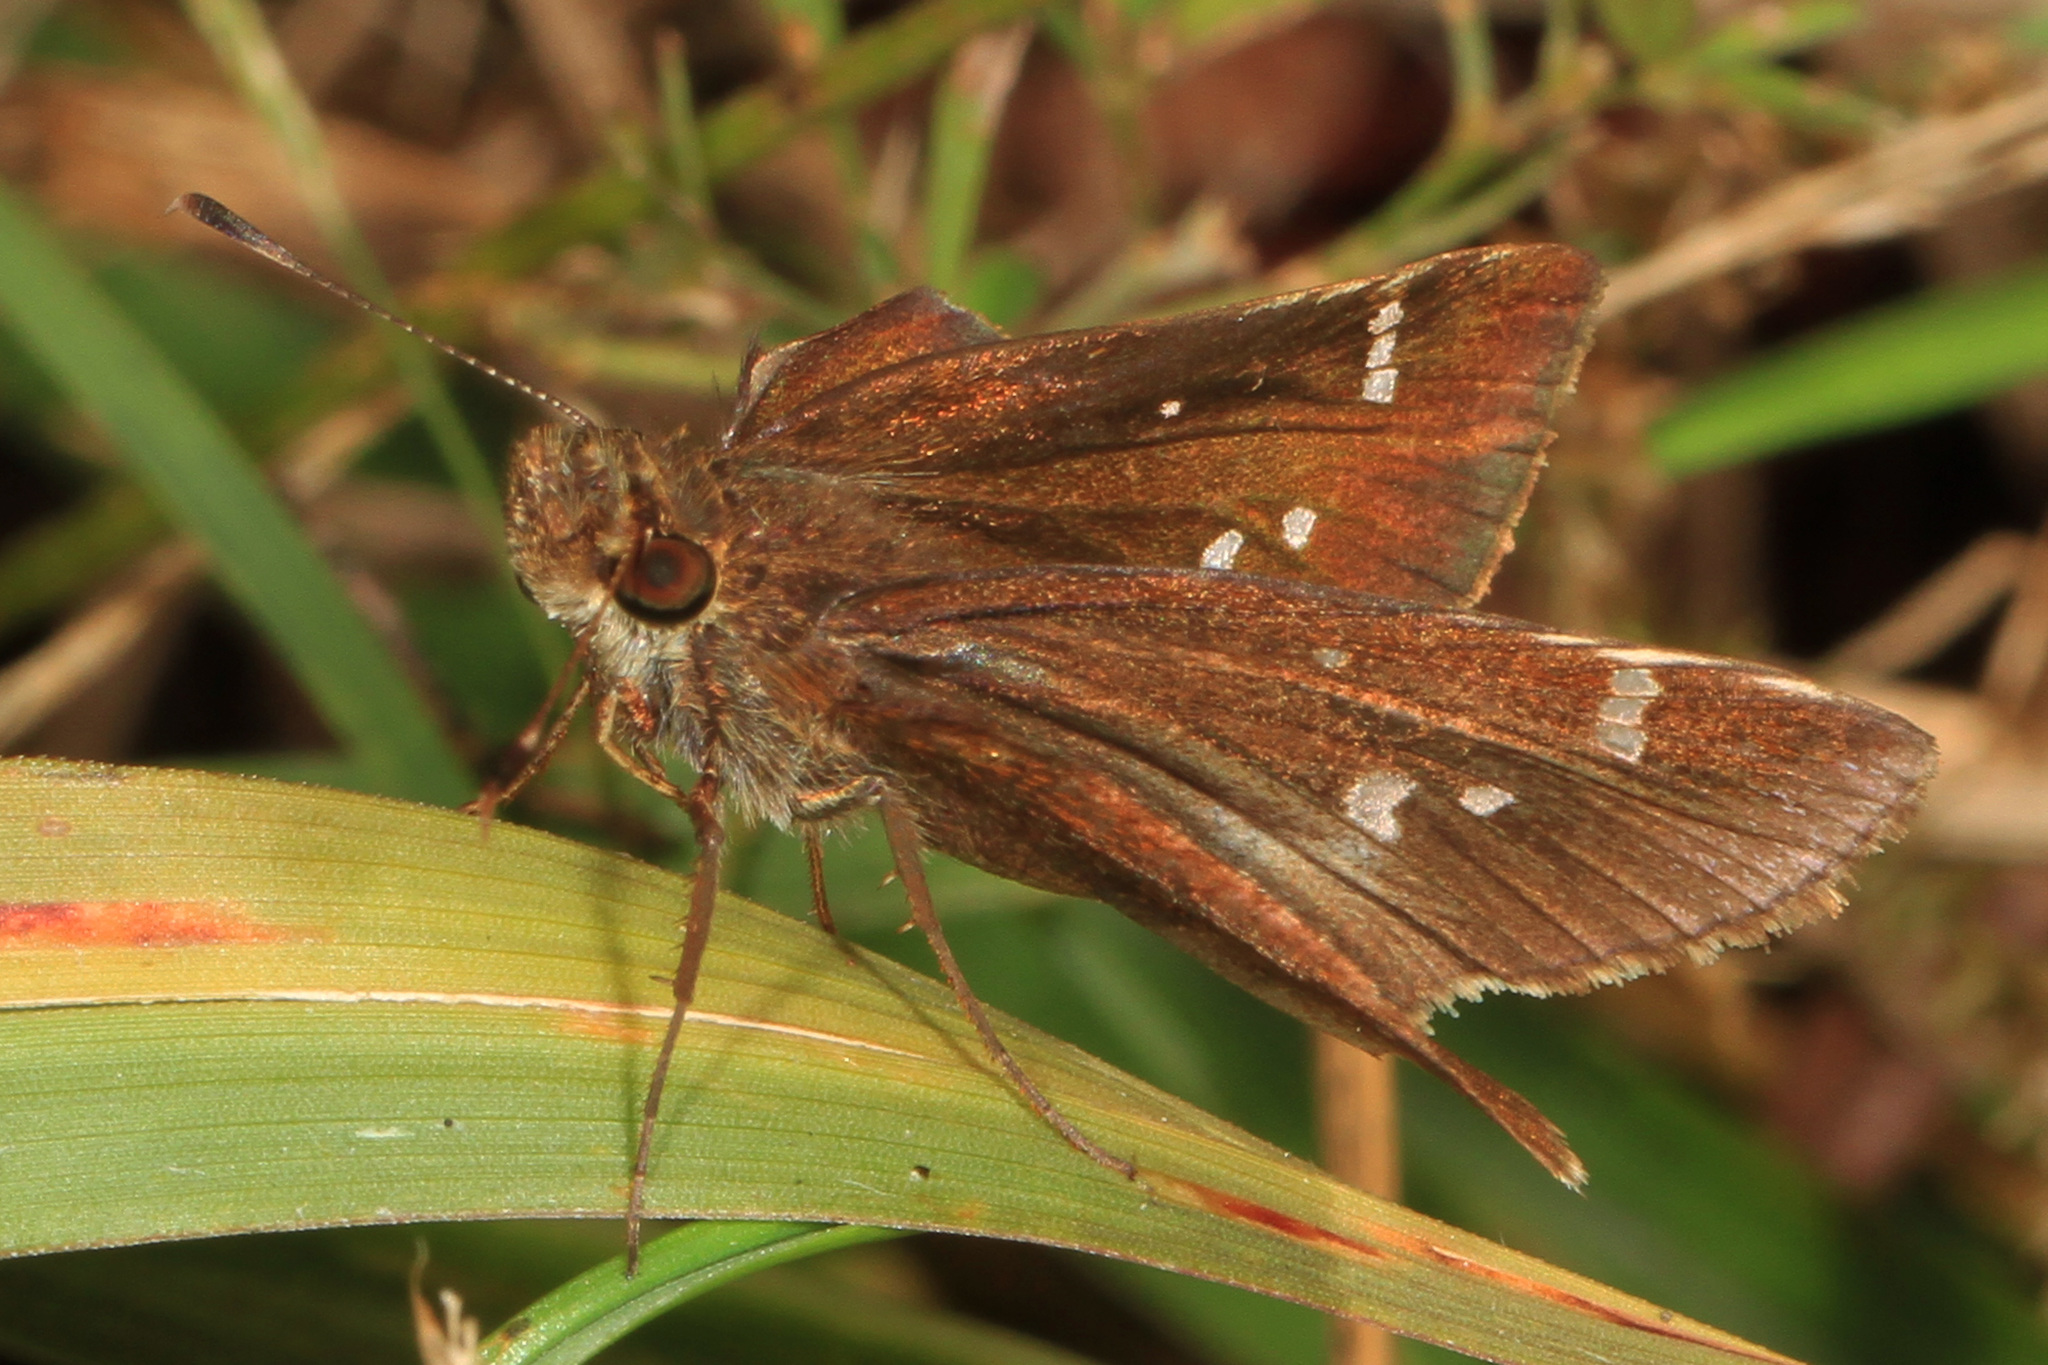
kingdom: Animalia
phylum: Arthropoda
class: Insecta
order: Lepidoptera
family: Hesperiidae
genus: Lerema
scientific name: Lerema accius
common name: Clouded skipper
